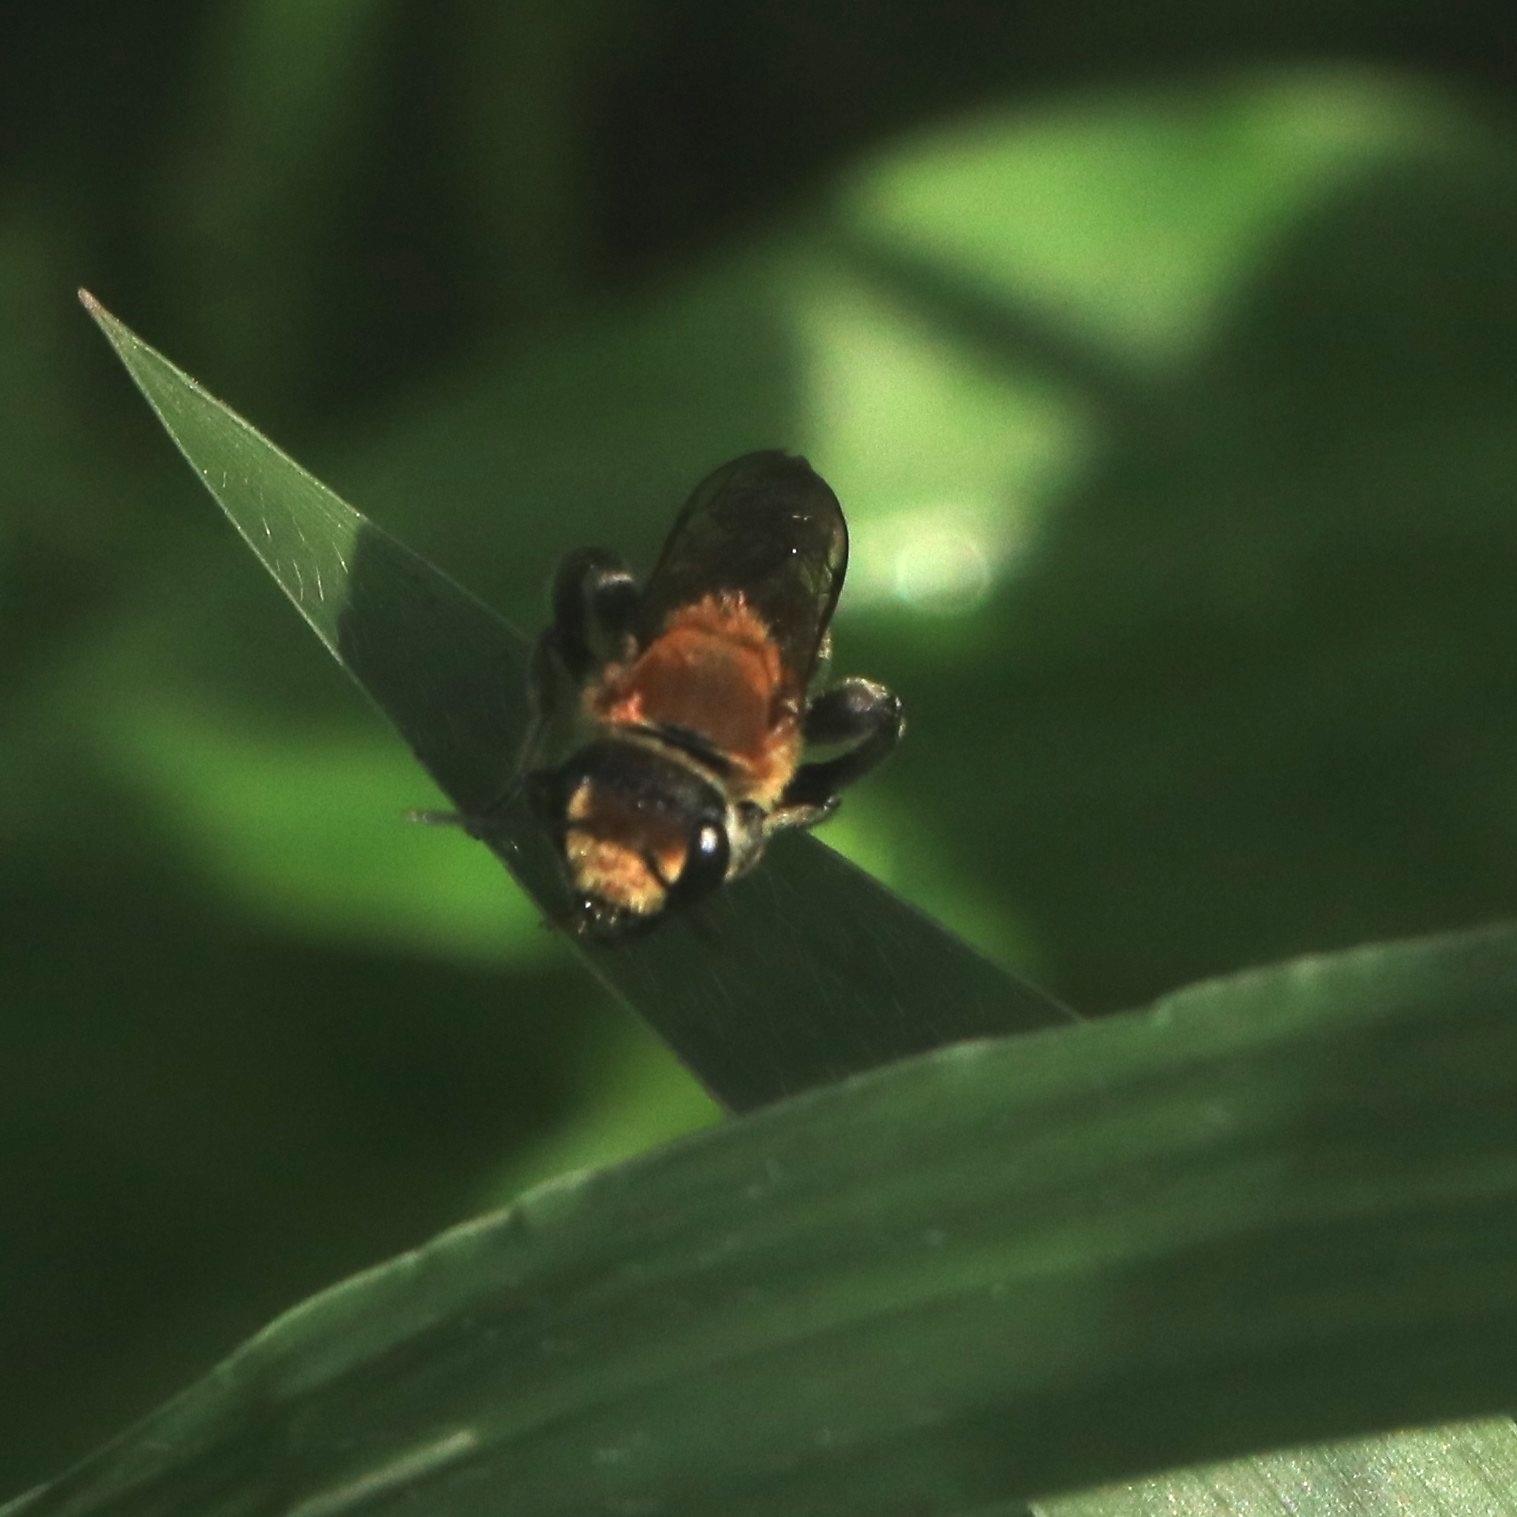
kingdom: Animalia
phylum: Arthropoda
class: Insecta
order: Hymenoptera
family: Halictidae
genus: Nomia
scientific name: Nomia thoracica
